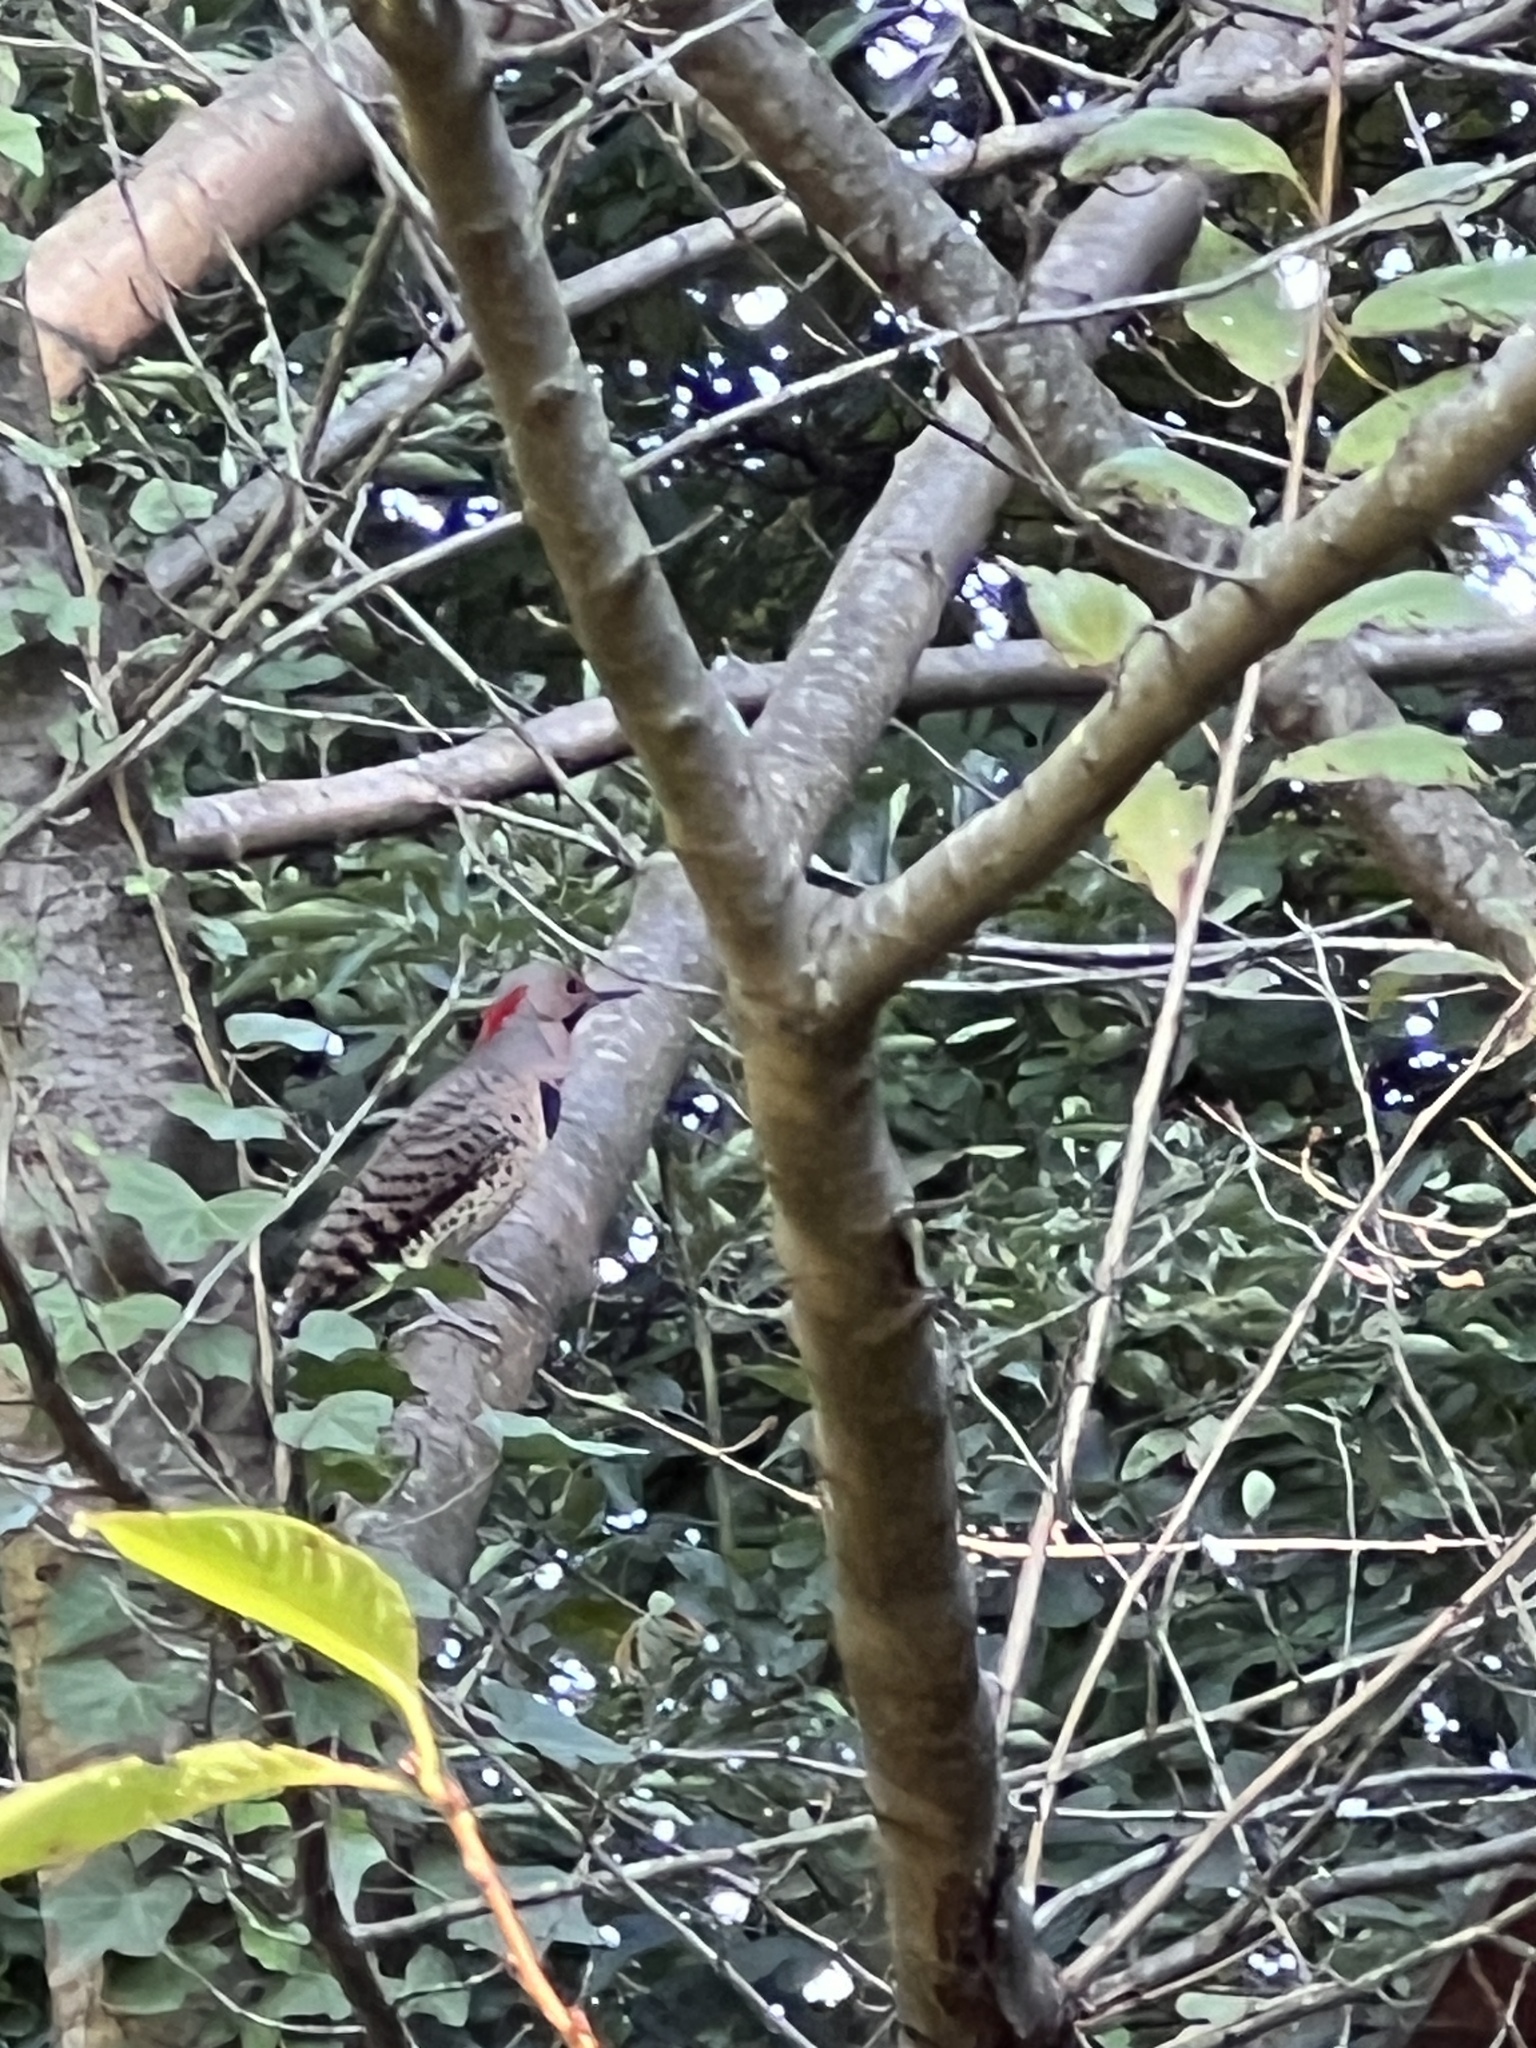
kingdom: Animalia
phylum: Chordata
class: Aves
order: Piciformes
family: Picidae
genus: Colaptes
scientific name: Colaptes auratus
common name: Northern flicker
